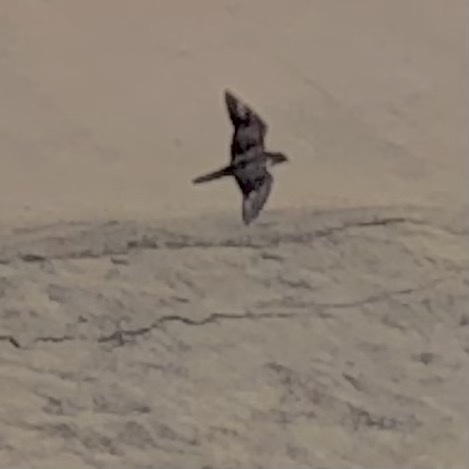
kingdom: Animalia
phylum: Chordata
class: Aves
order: Falconiformes
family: Falconidae
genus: Falco
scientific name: Falco peregrinus
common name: Peregrine falcon
